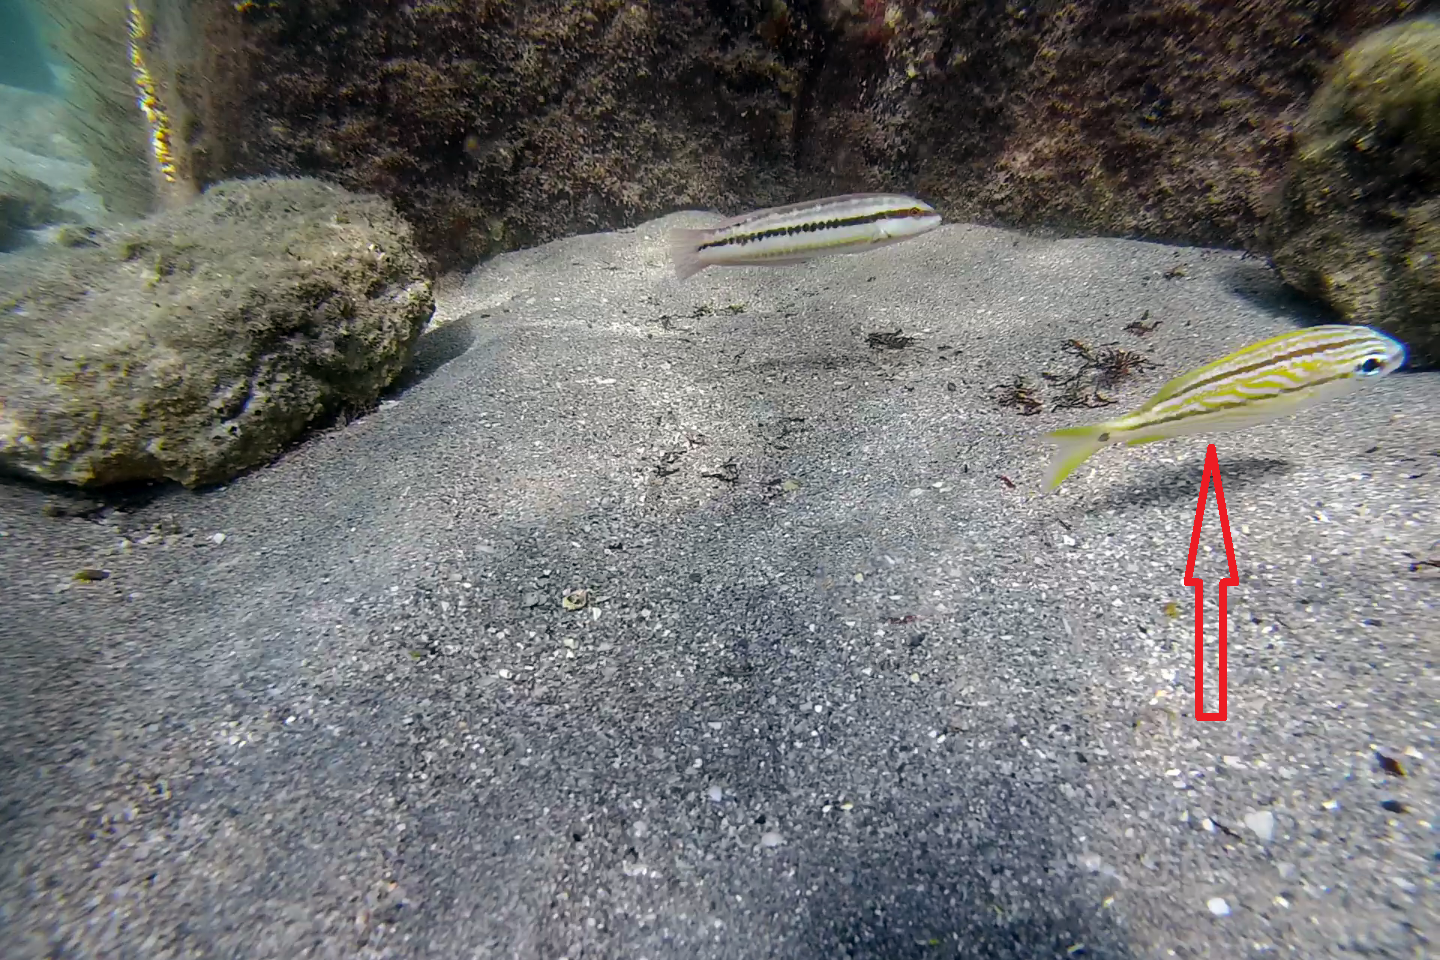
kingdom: Animalia
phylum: Chordata
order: Perciformes
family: Haemulidae
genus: Haemulon
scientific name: Haemulon flavolineatum
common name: French grunt
